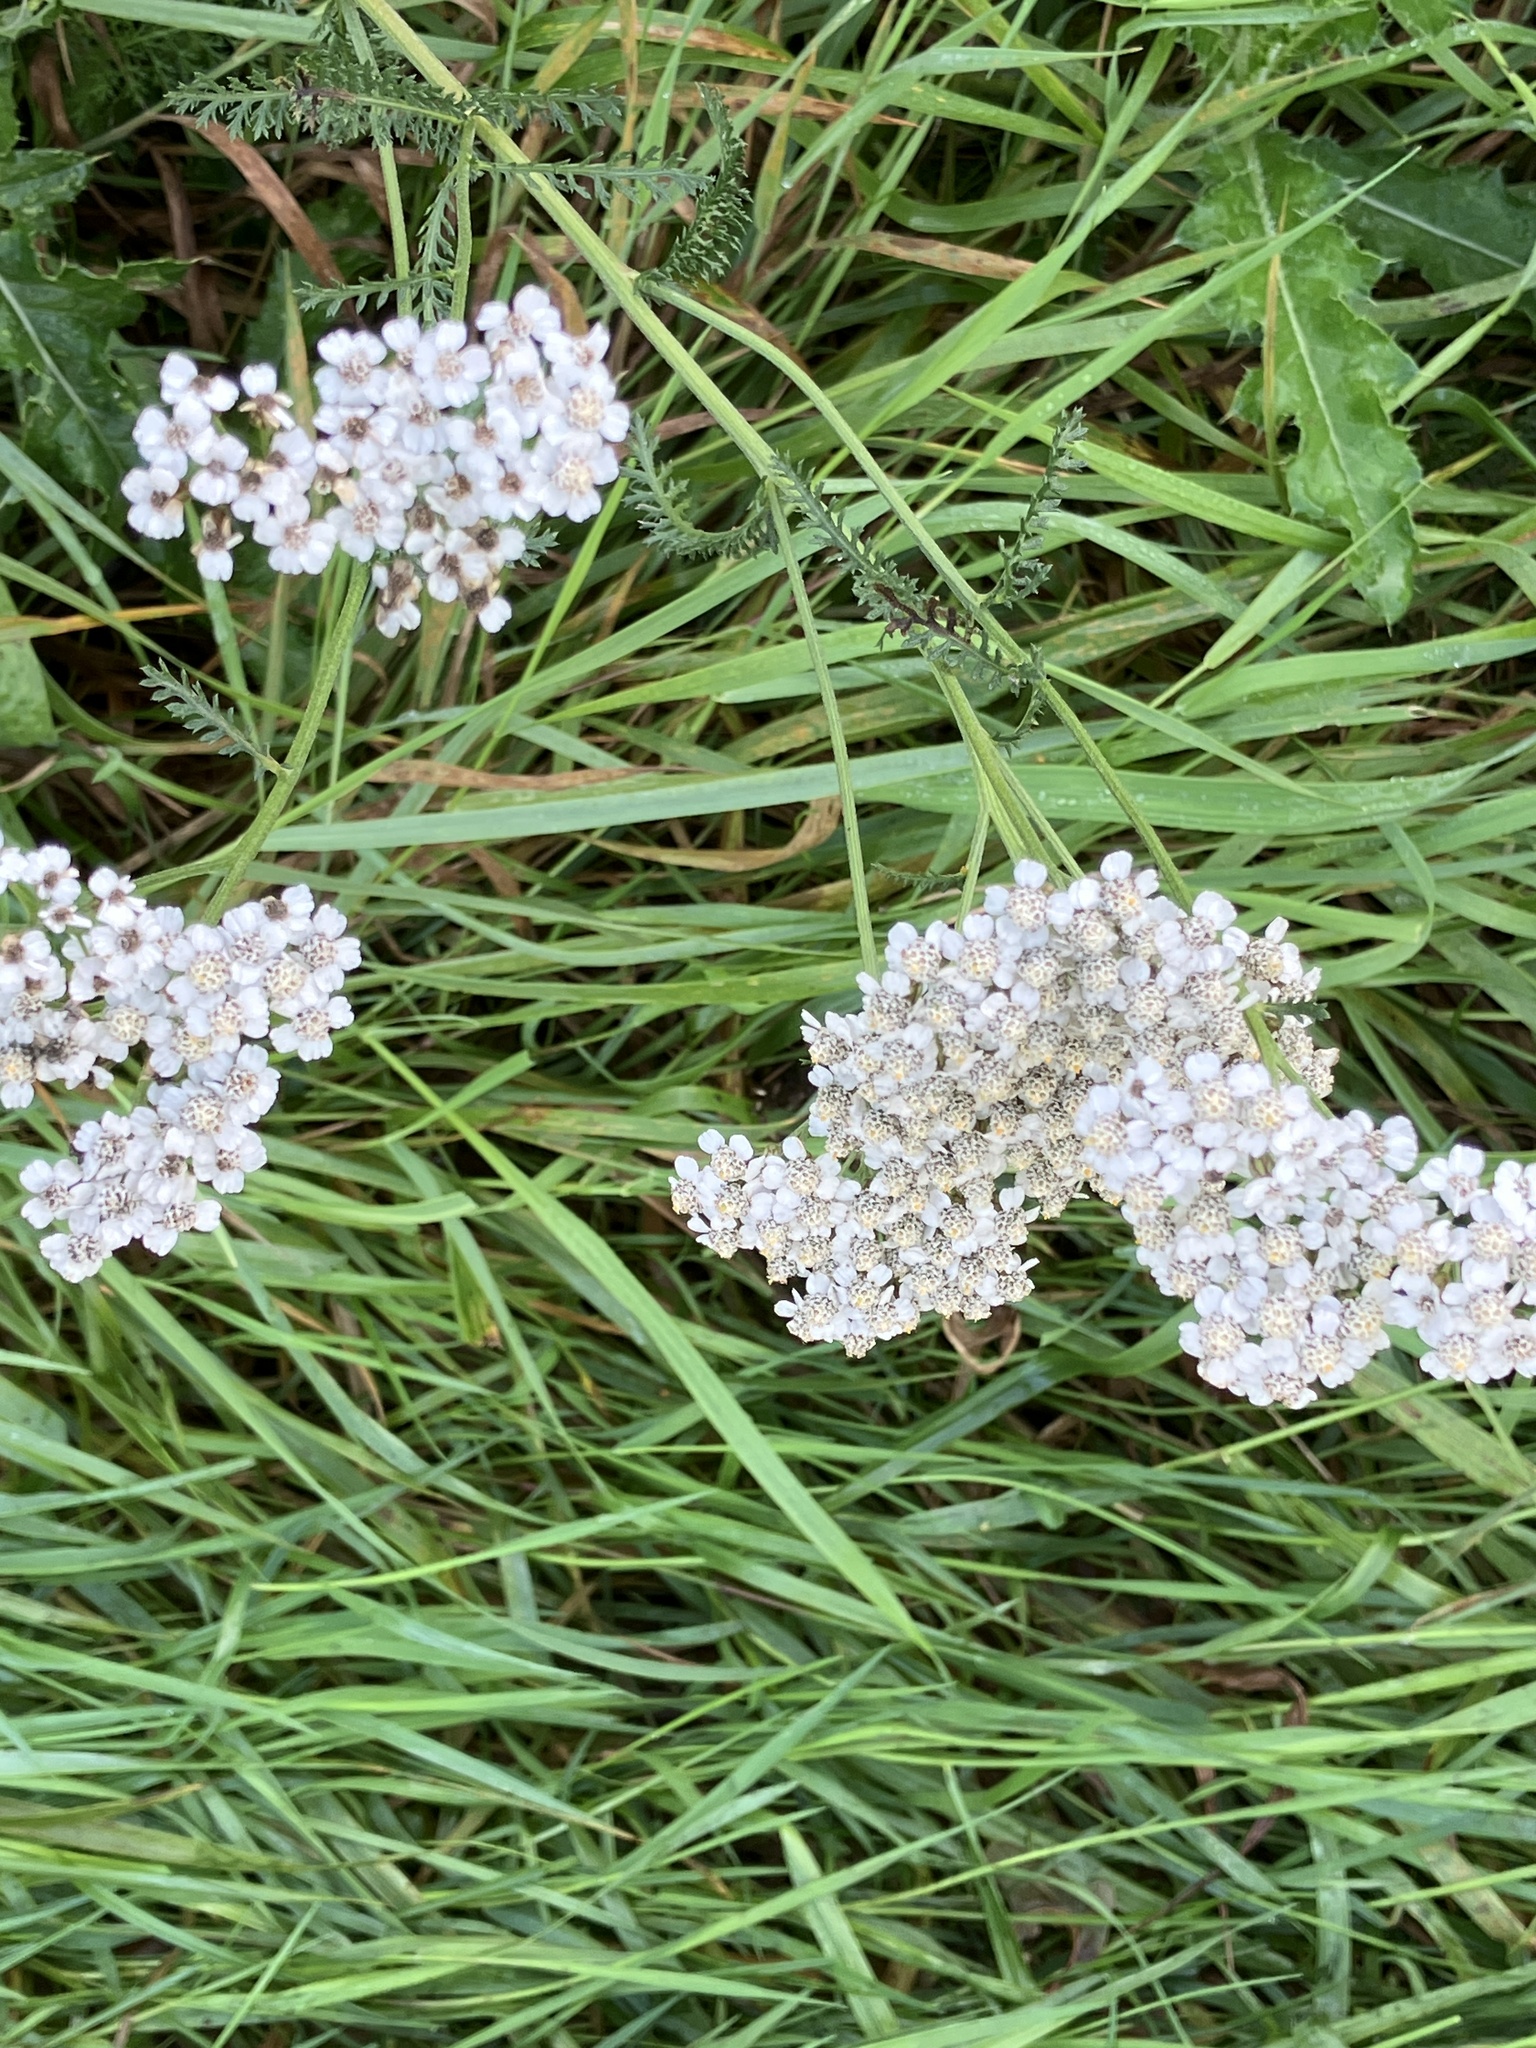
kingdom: Plantae
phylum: Tracheophyta
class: Magnoliopsida
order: Asterales
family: Asteraceae
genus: Achillea
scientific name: Achillea millefolium
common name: Yarrow
